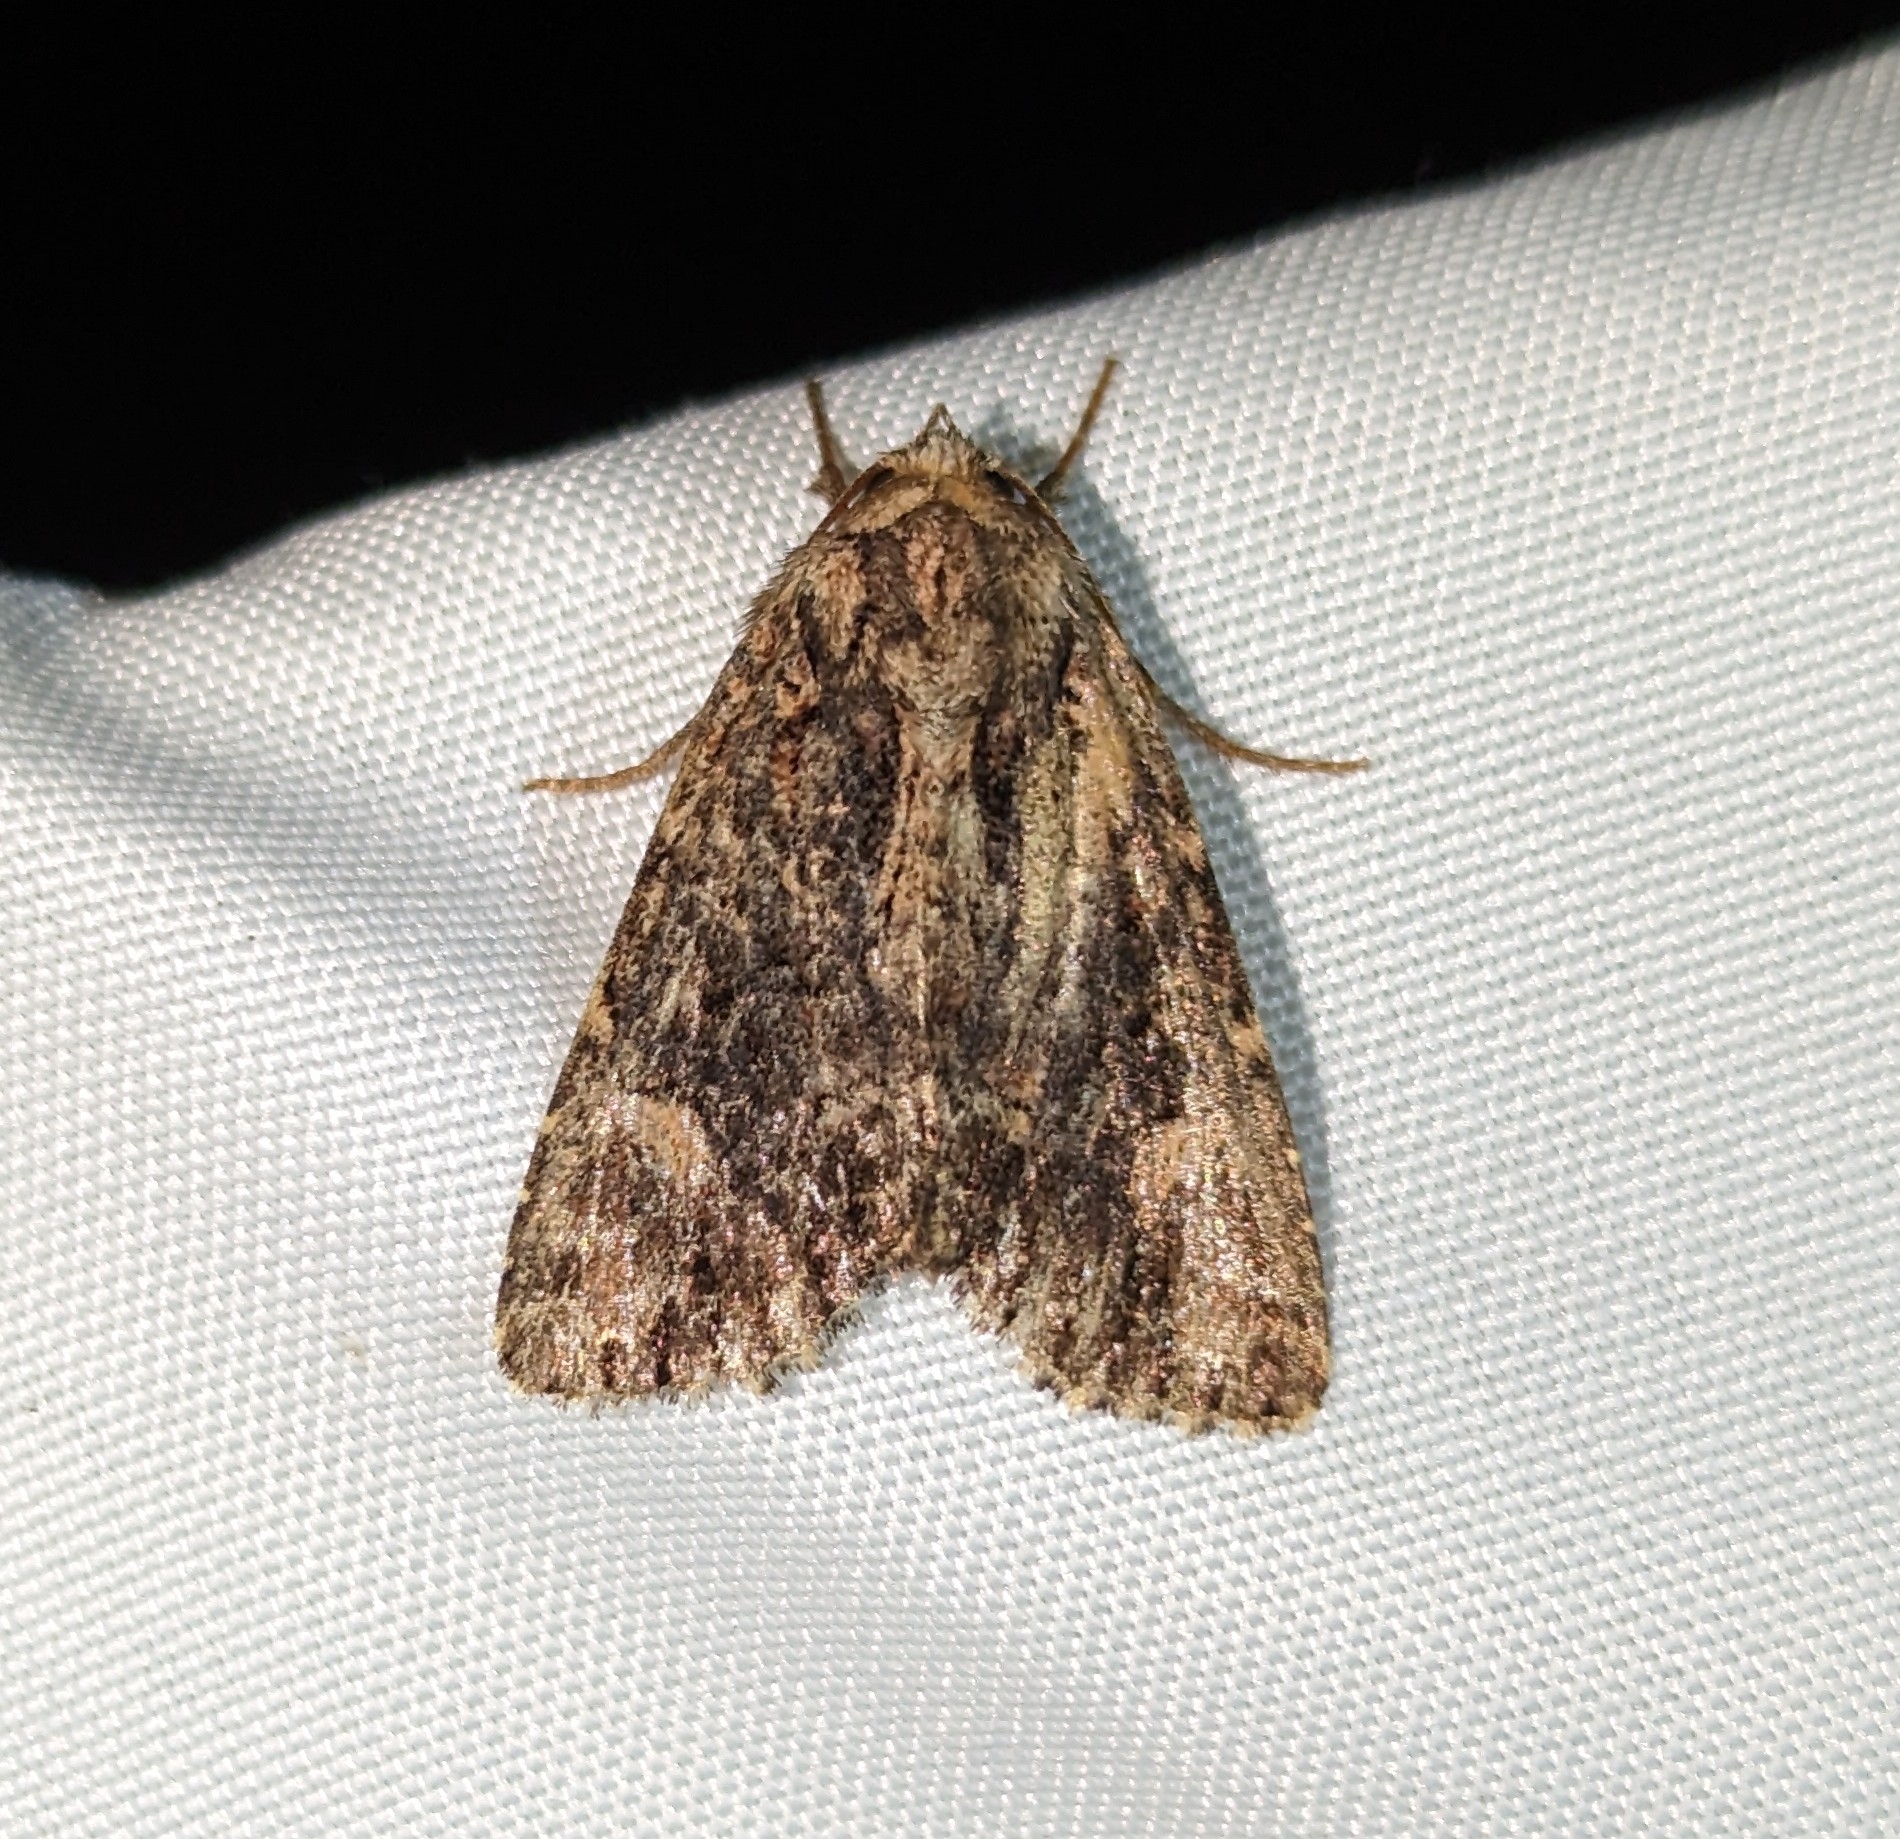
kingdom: Animalia
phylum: Arthropoda
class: Insecta
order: Lepidoptera
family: Noctuidae
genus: Aseptis
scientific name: Aseptis binotata
